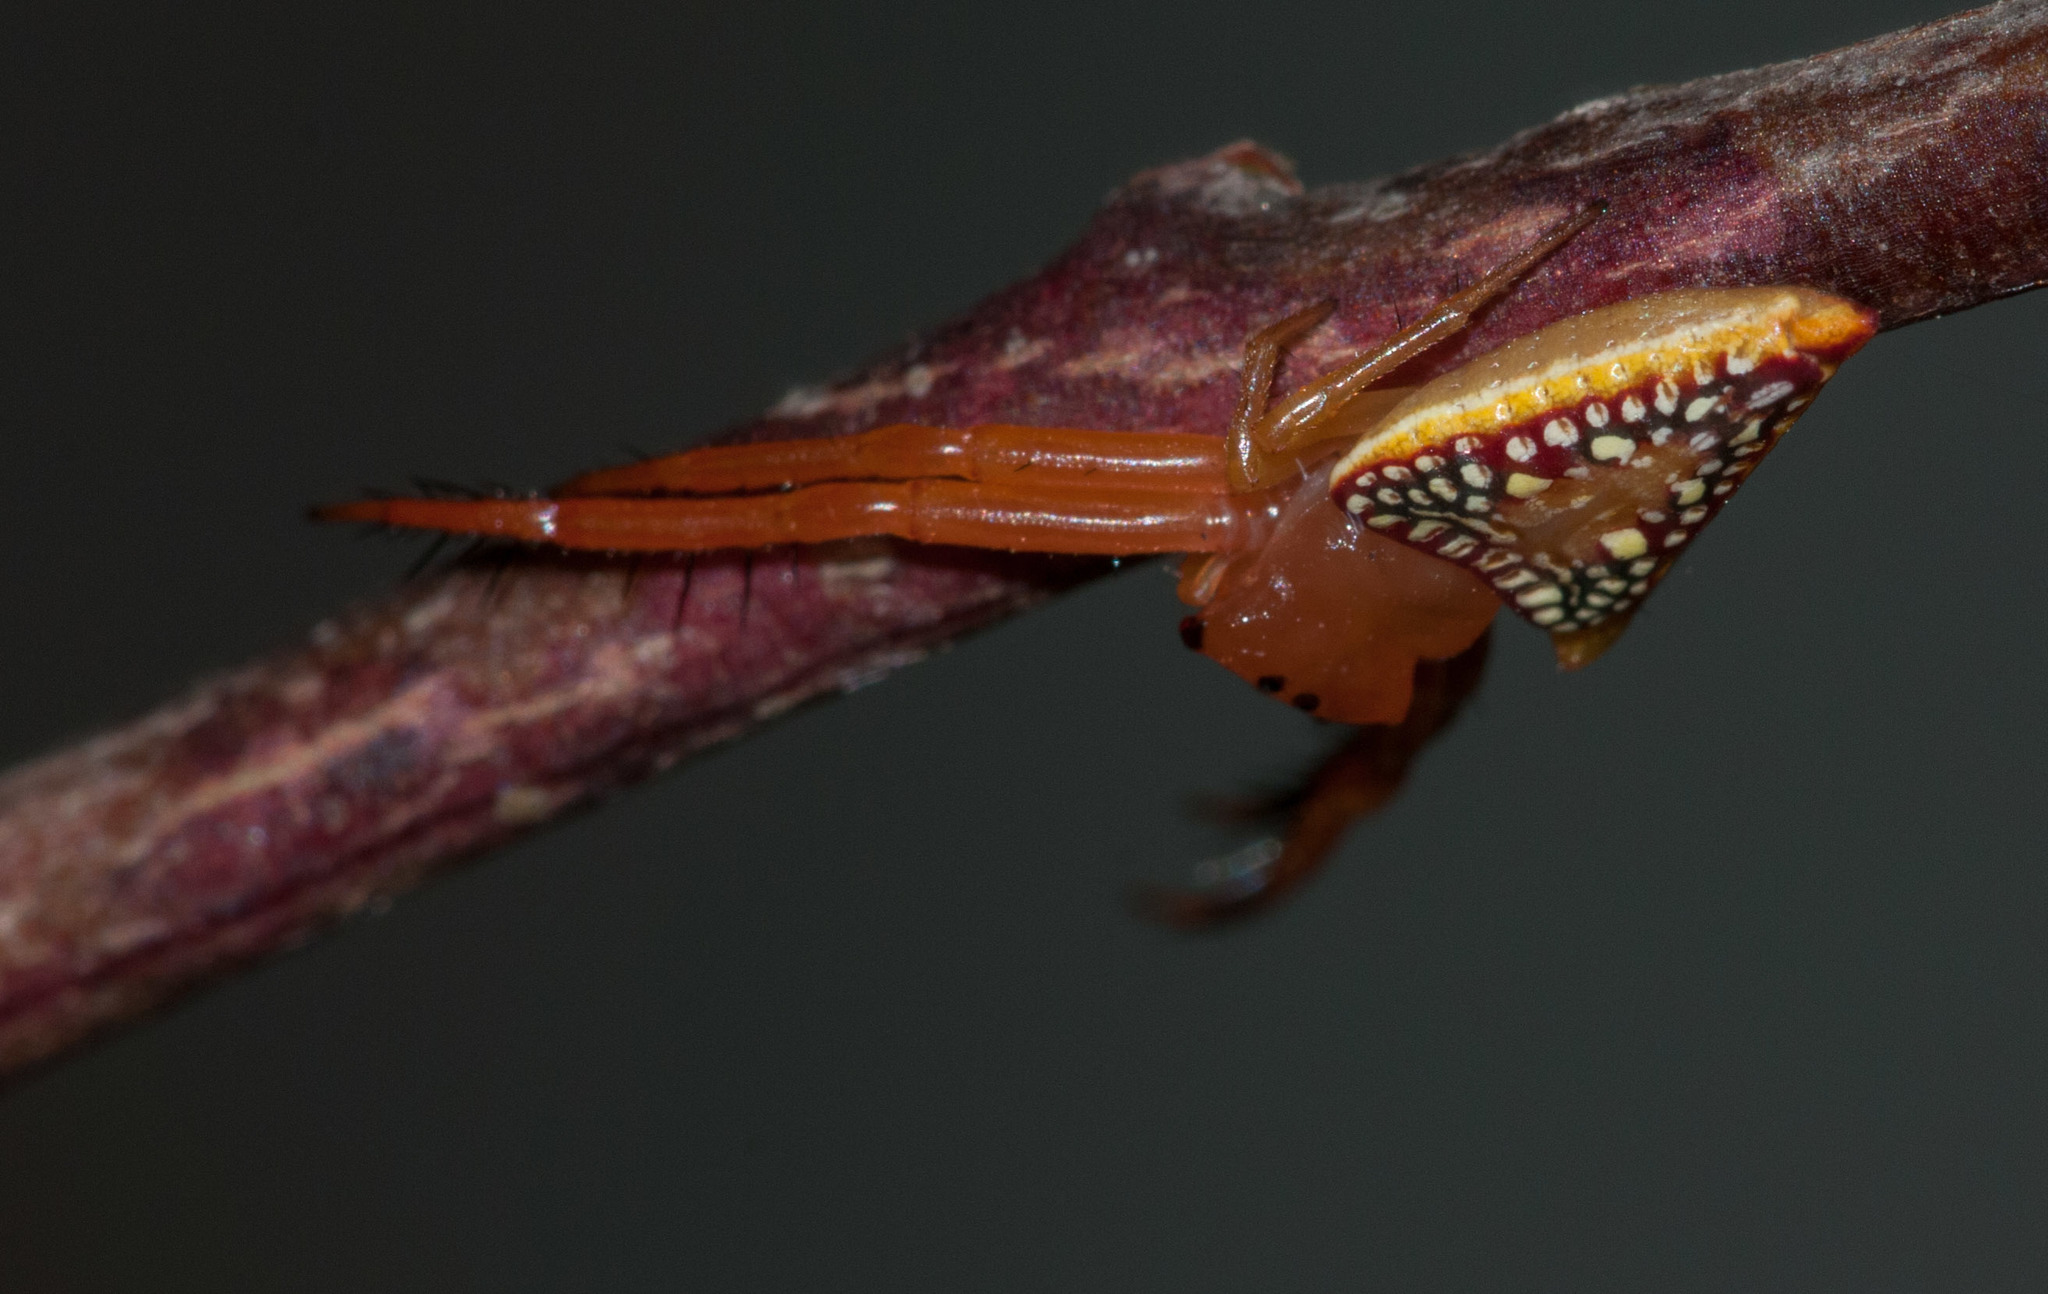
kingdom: Animalia
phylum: Arthropoda
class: Arachnida
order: Araneae
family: Arkyidae
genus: Arkys
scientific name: Arkys walckenaeri
